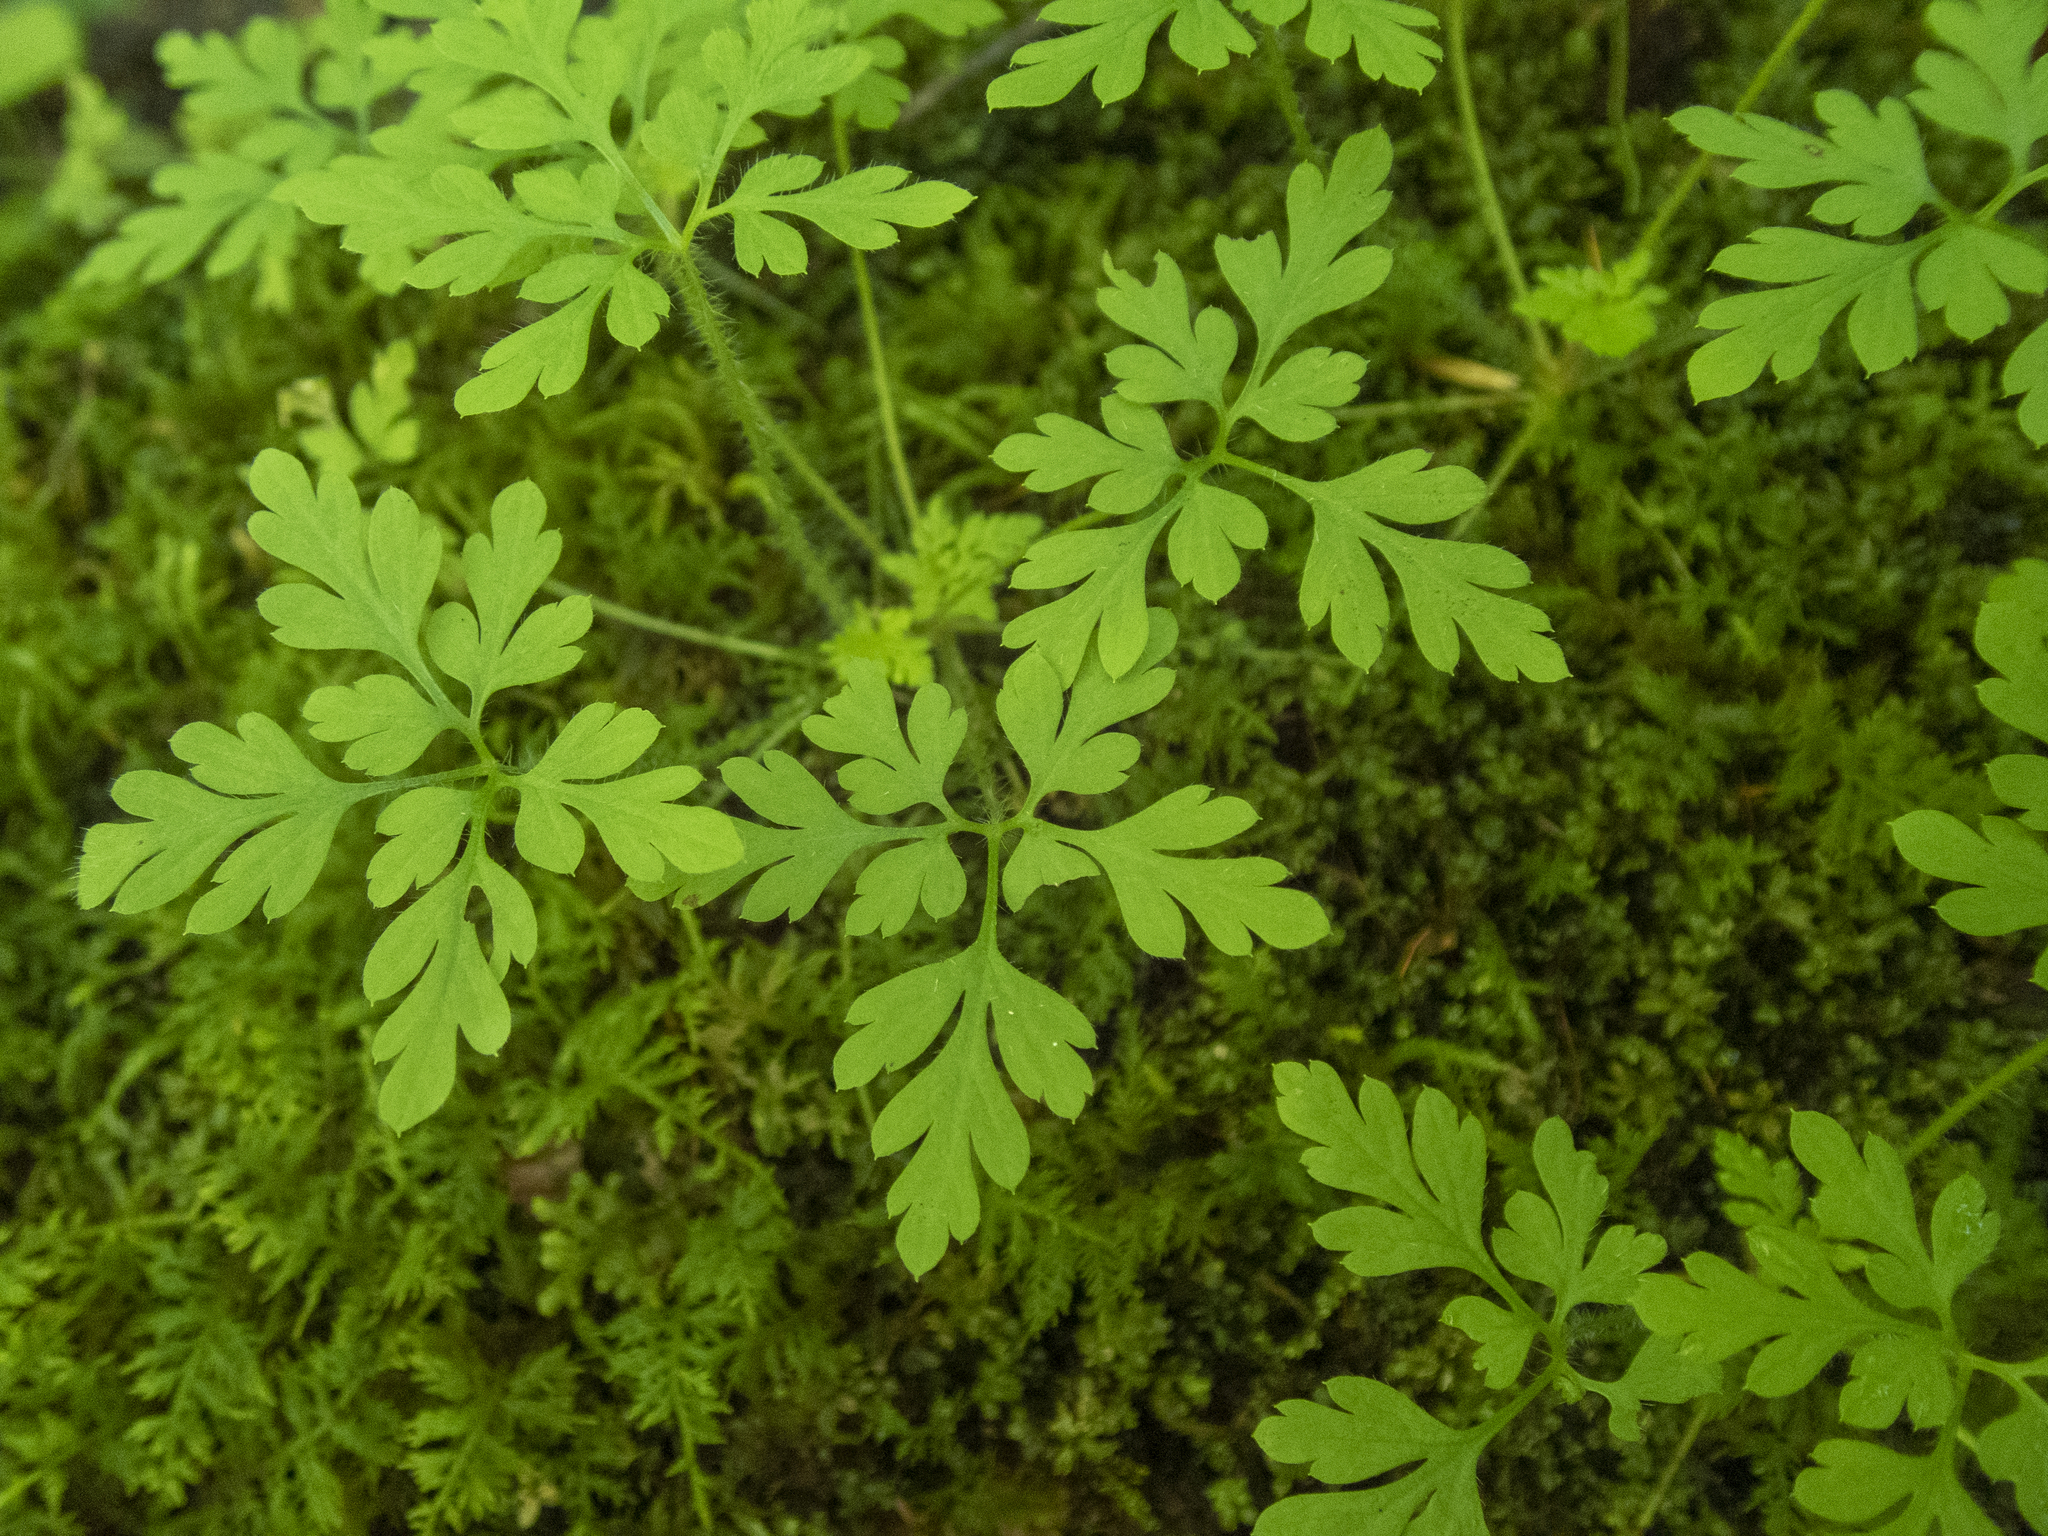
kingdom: Plantae
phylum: Tracheophyta
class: Magnoliopsida
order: Geraniales
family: Geraniaceae
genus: Geranium
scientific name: Geranium robertianum
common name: Herb-robert
